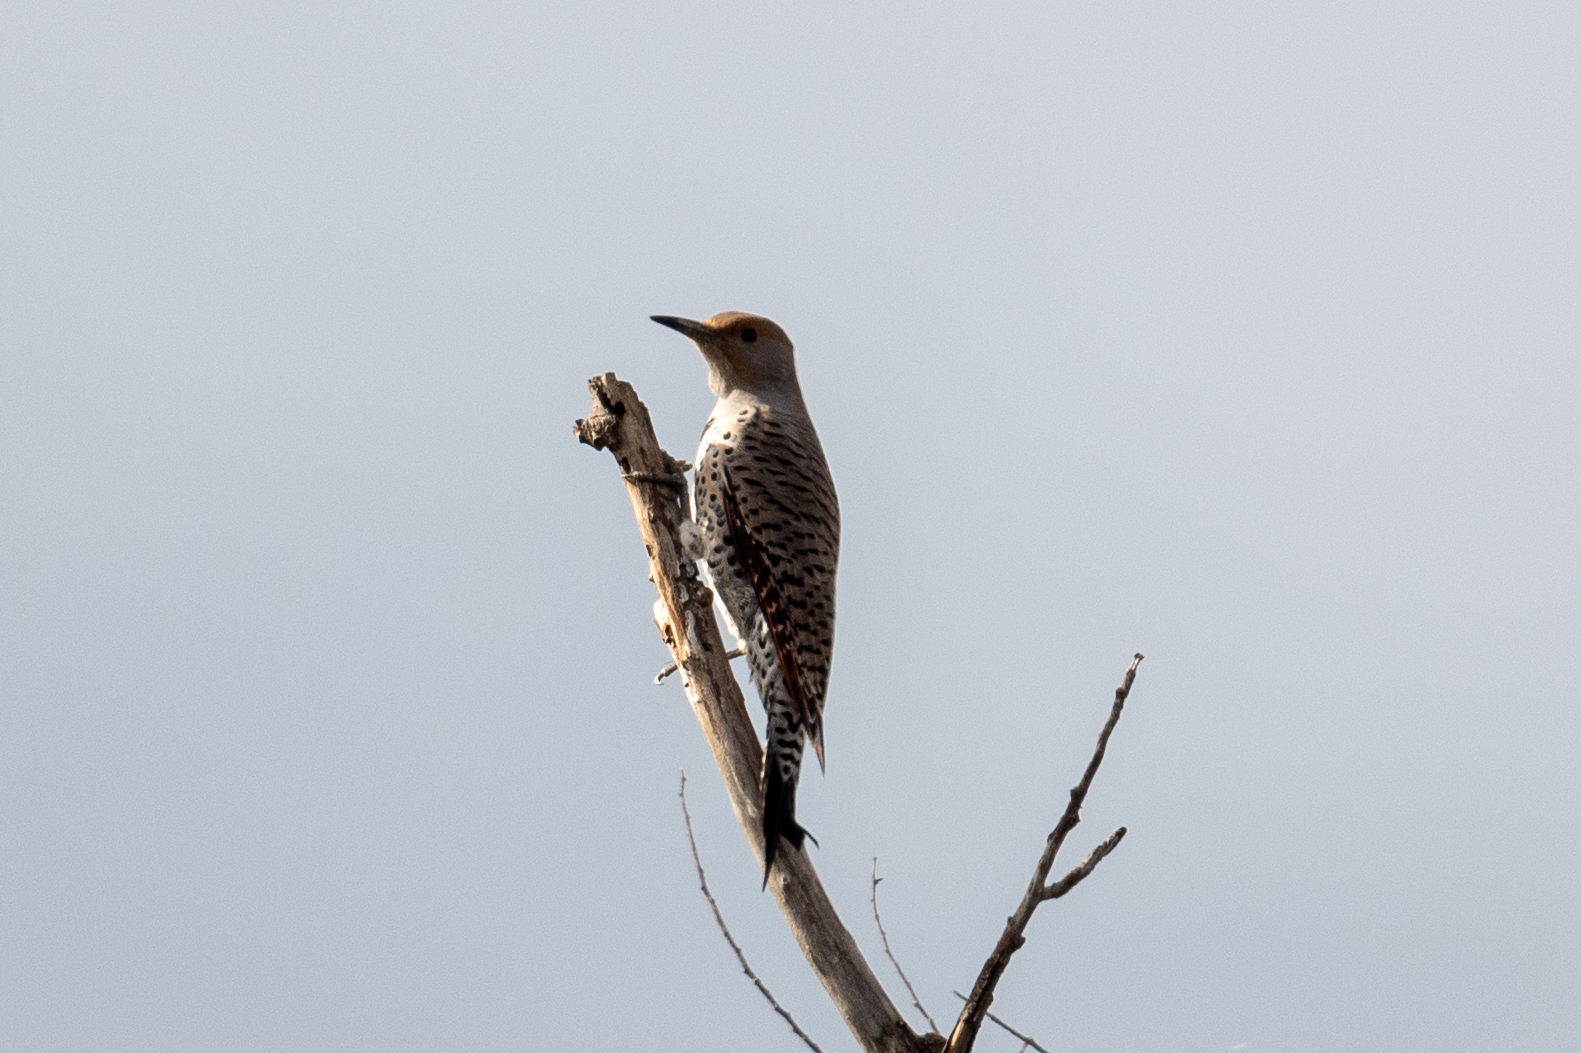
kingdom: Animalia
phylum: Chordata
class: Aves
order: Piciformes
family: Picidae
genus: Colaptes
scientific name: Colaptes auratus
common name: Northern flicker
